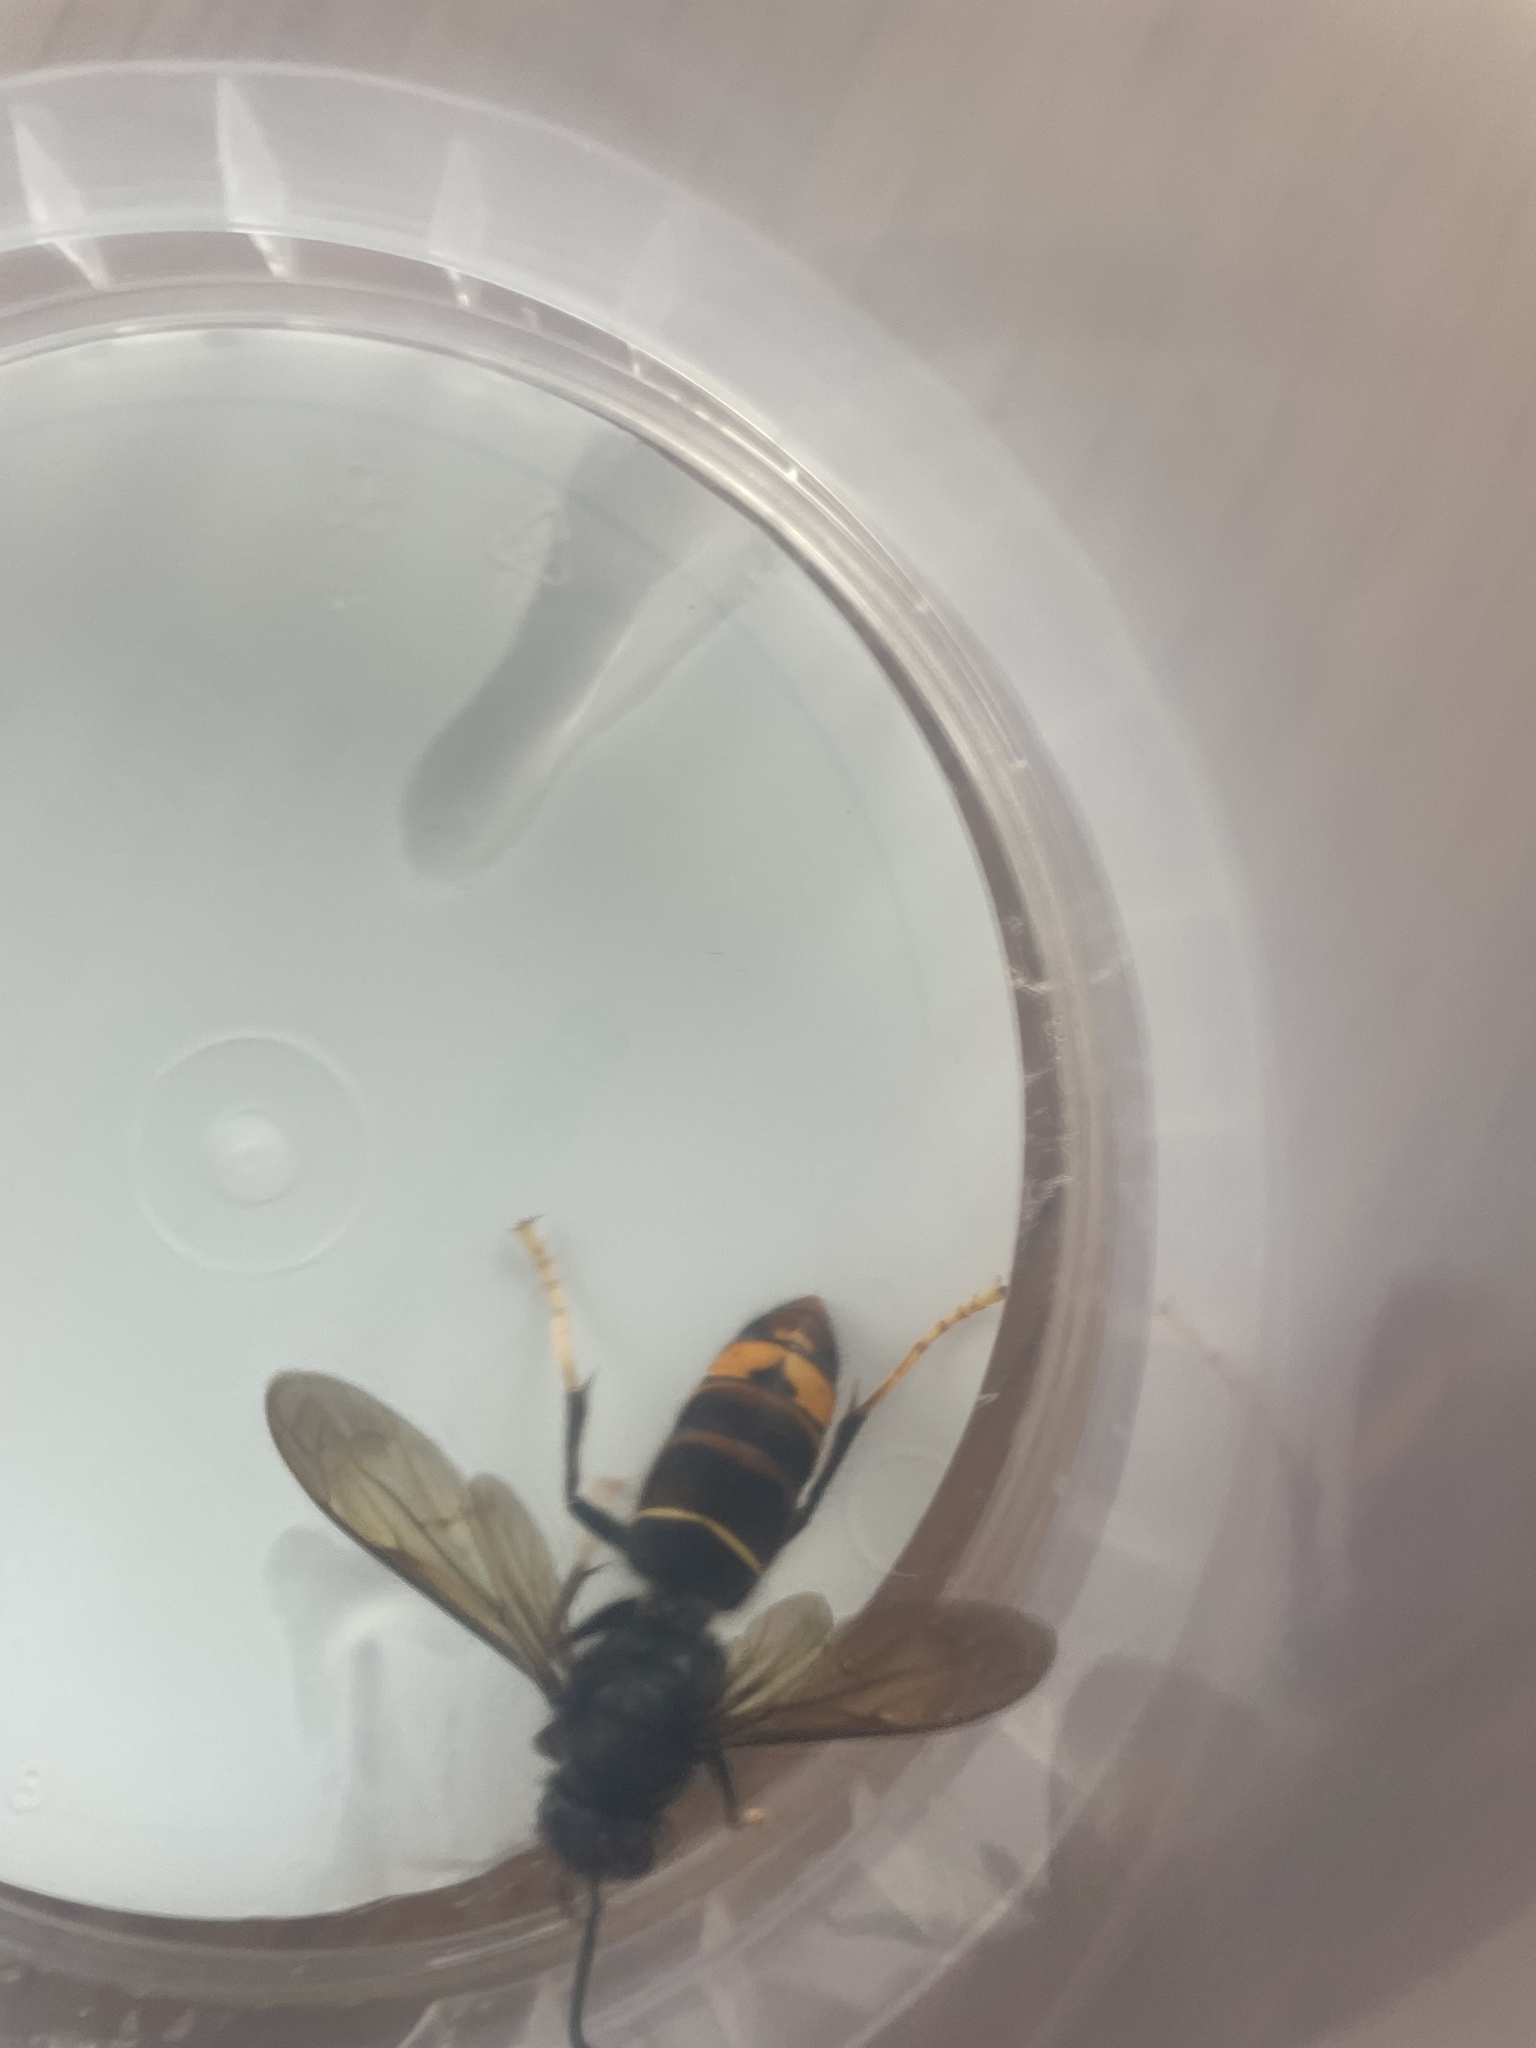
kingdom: Animalia
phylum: Arthropoda
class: Insecta
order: Hymenoptera
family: Vespidae
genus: Vespa
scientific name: Vespa velutina
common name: Asian hornet
